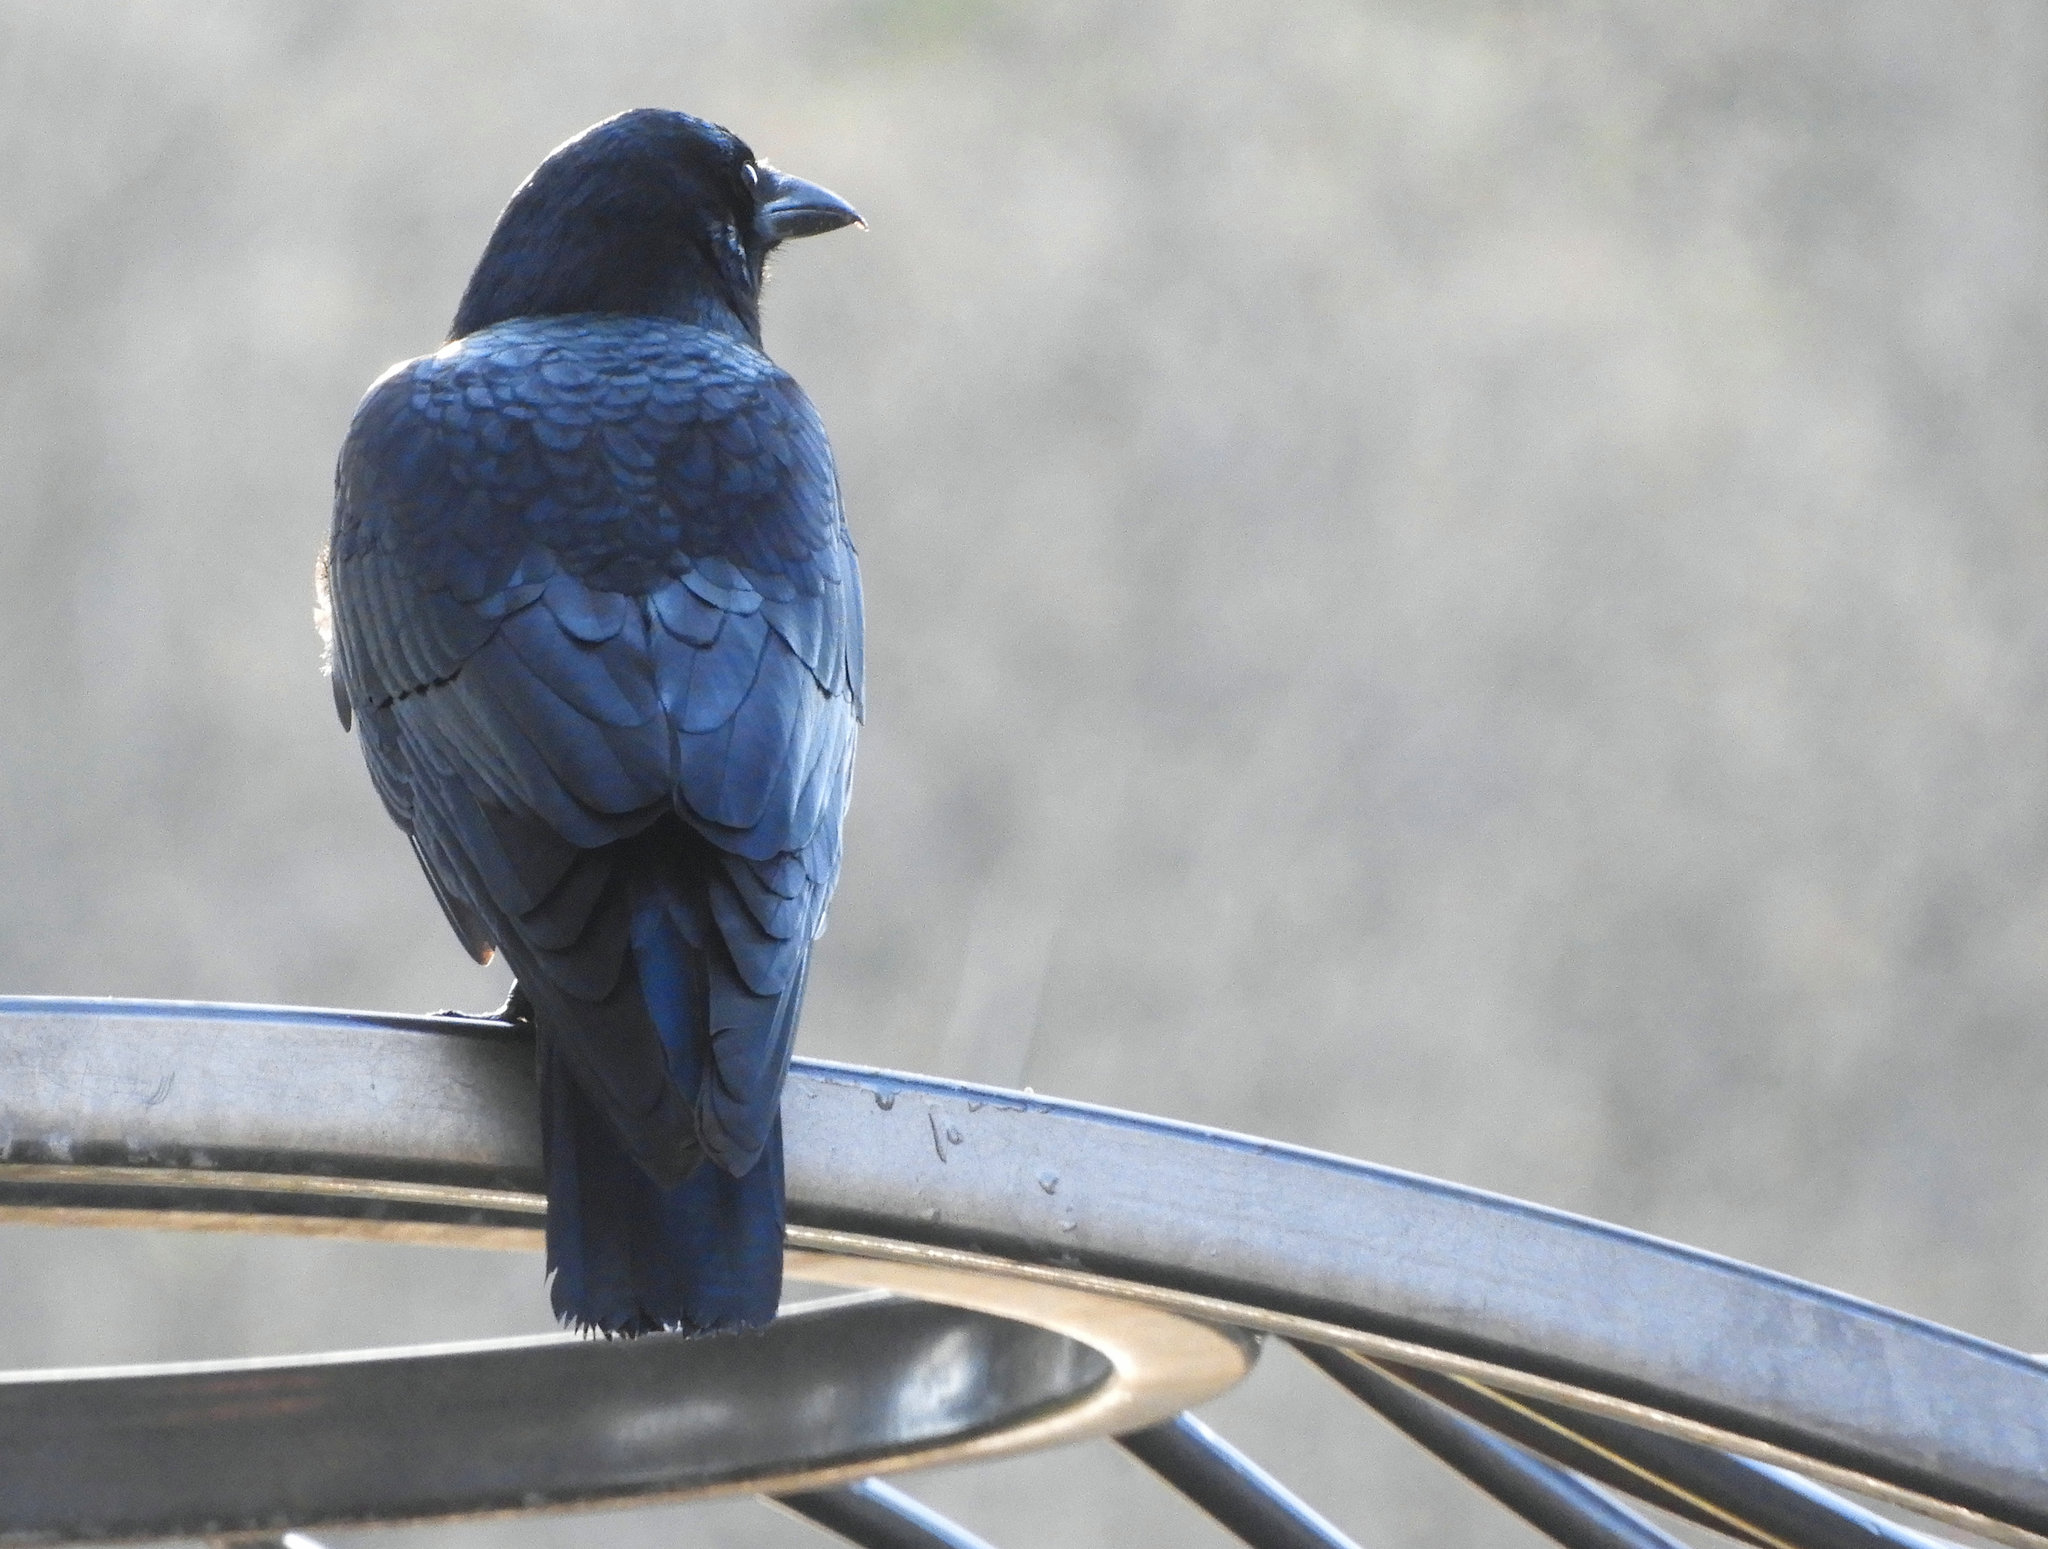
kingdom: Animalia
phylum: Chordata
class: Aves
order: Passeriformes
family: Corvidae
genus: Corvus
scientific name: Corvus brachyrhynchos
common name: American crow
